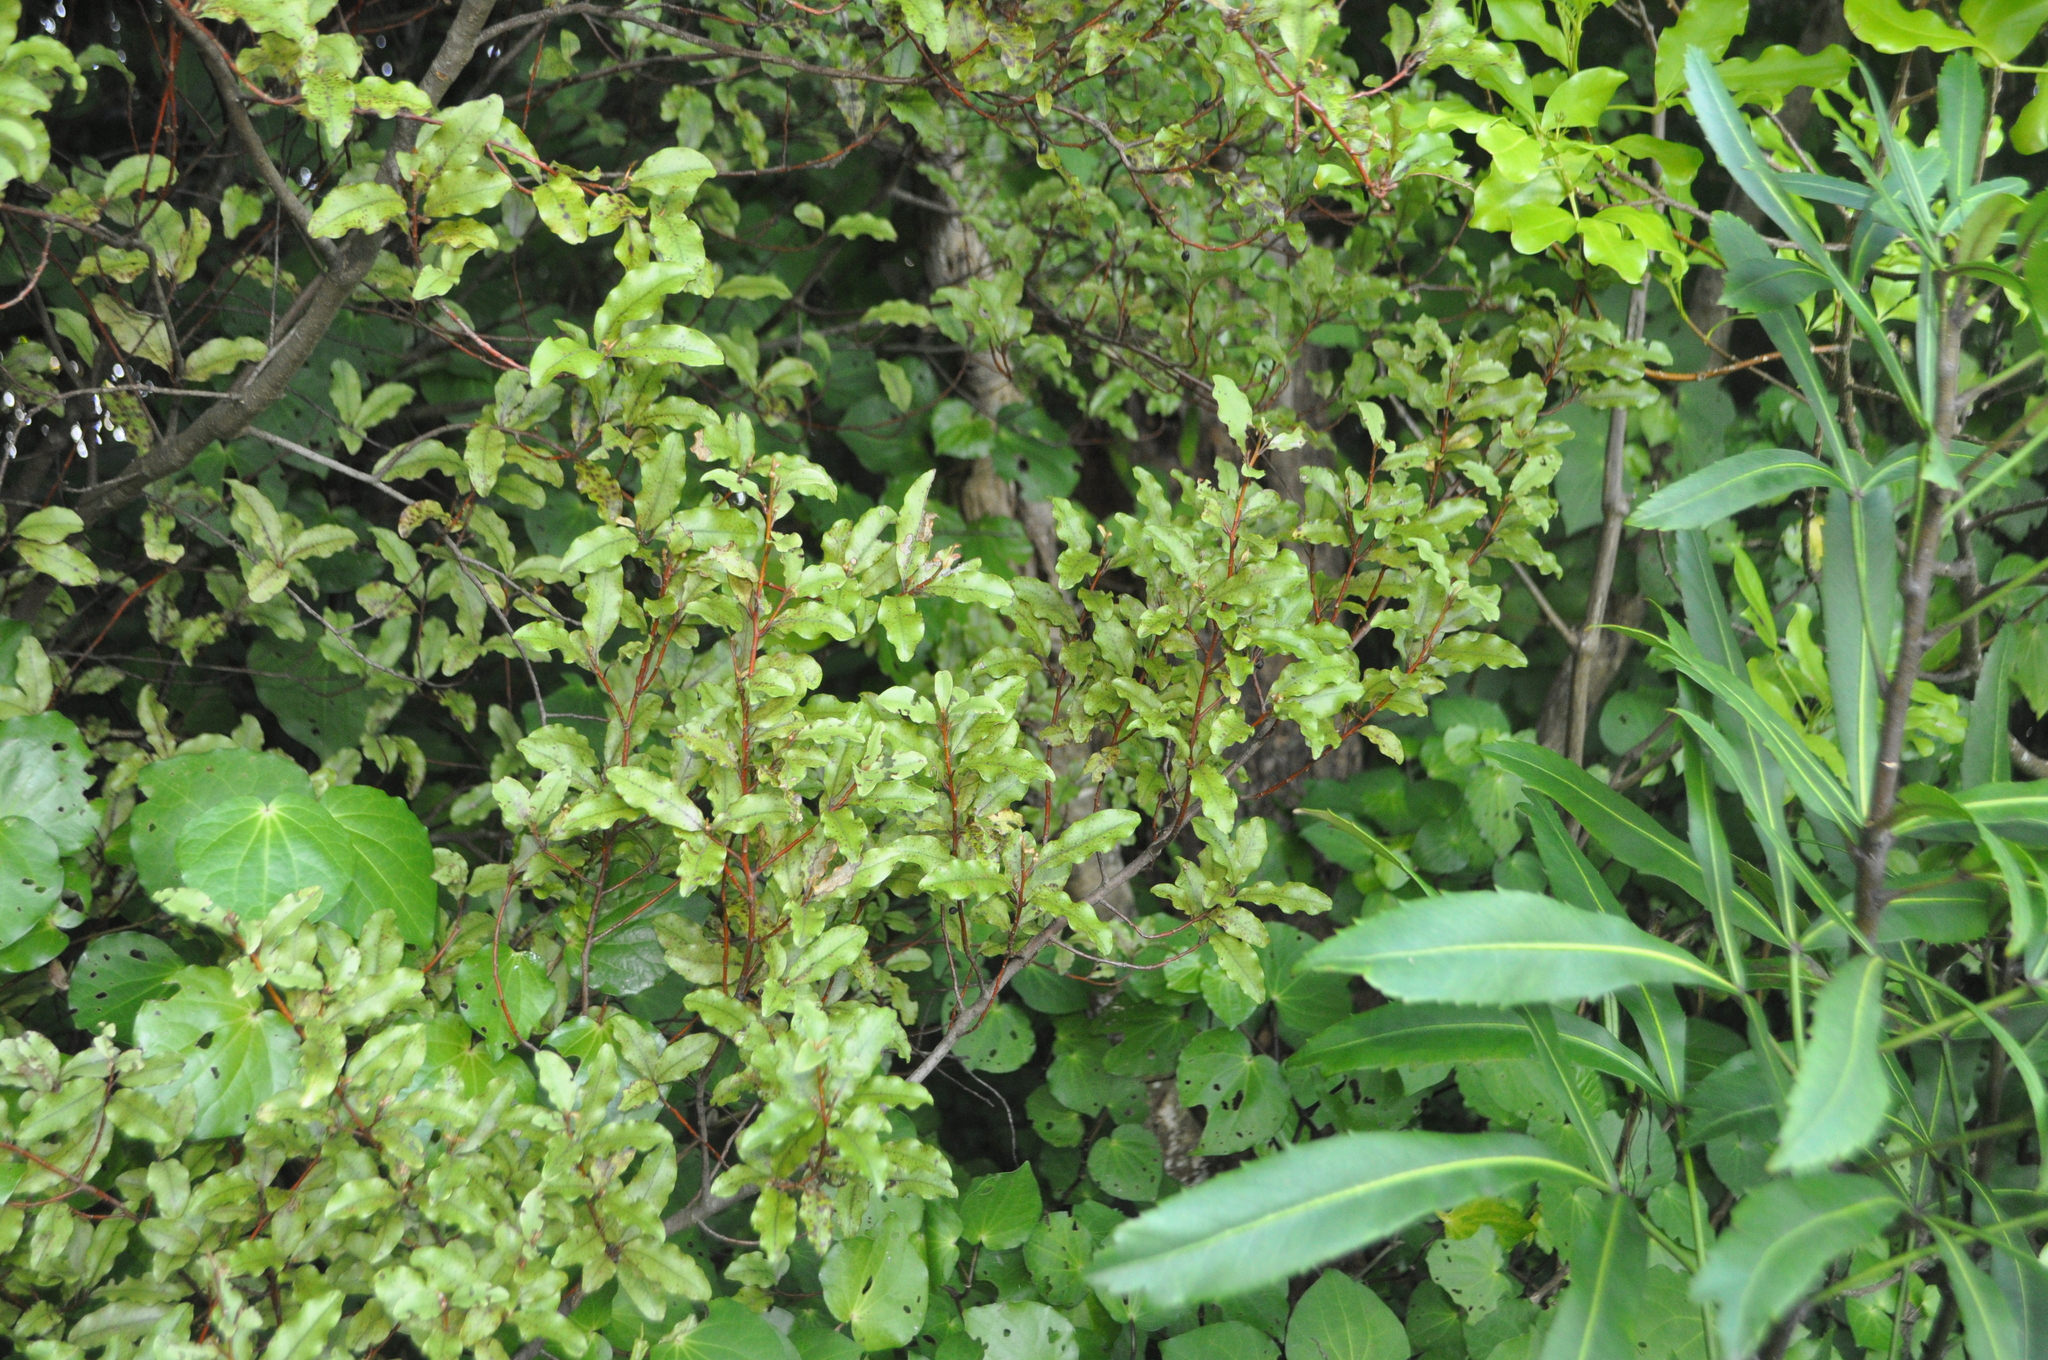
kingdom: Plantae
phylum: Tracheophyta
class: Magnoliopsida
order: Ericales
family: Primulaceae
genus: Myrsine
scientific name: Myrsine australis
